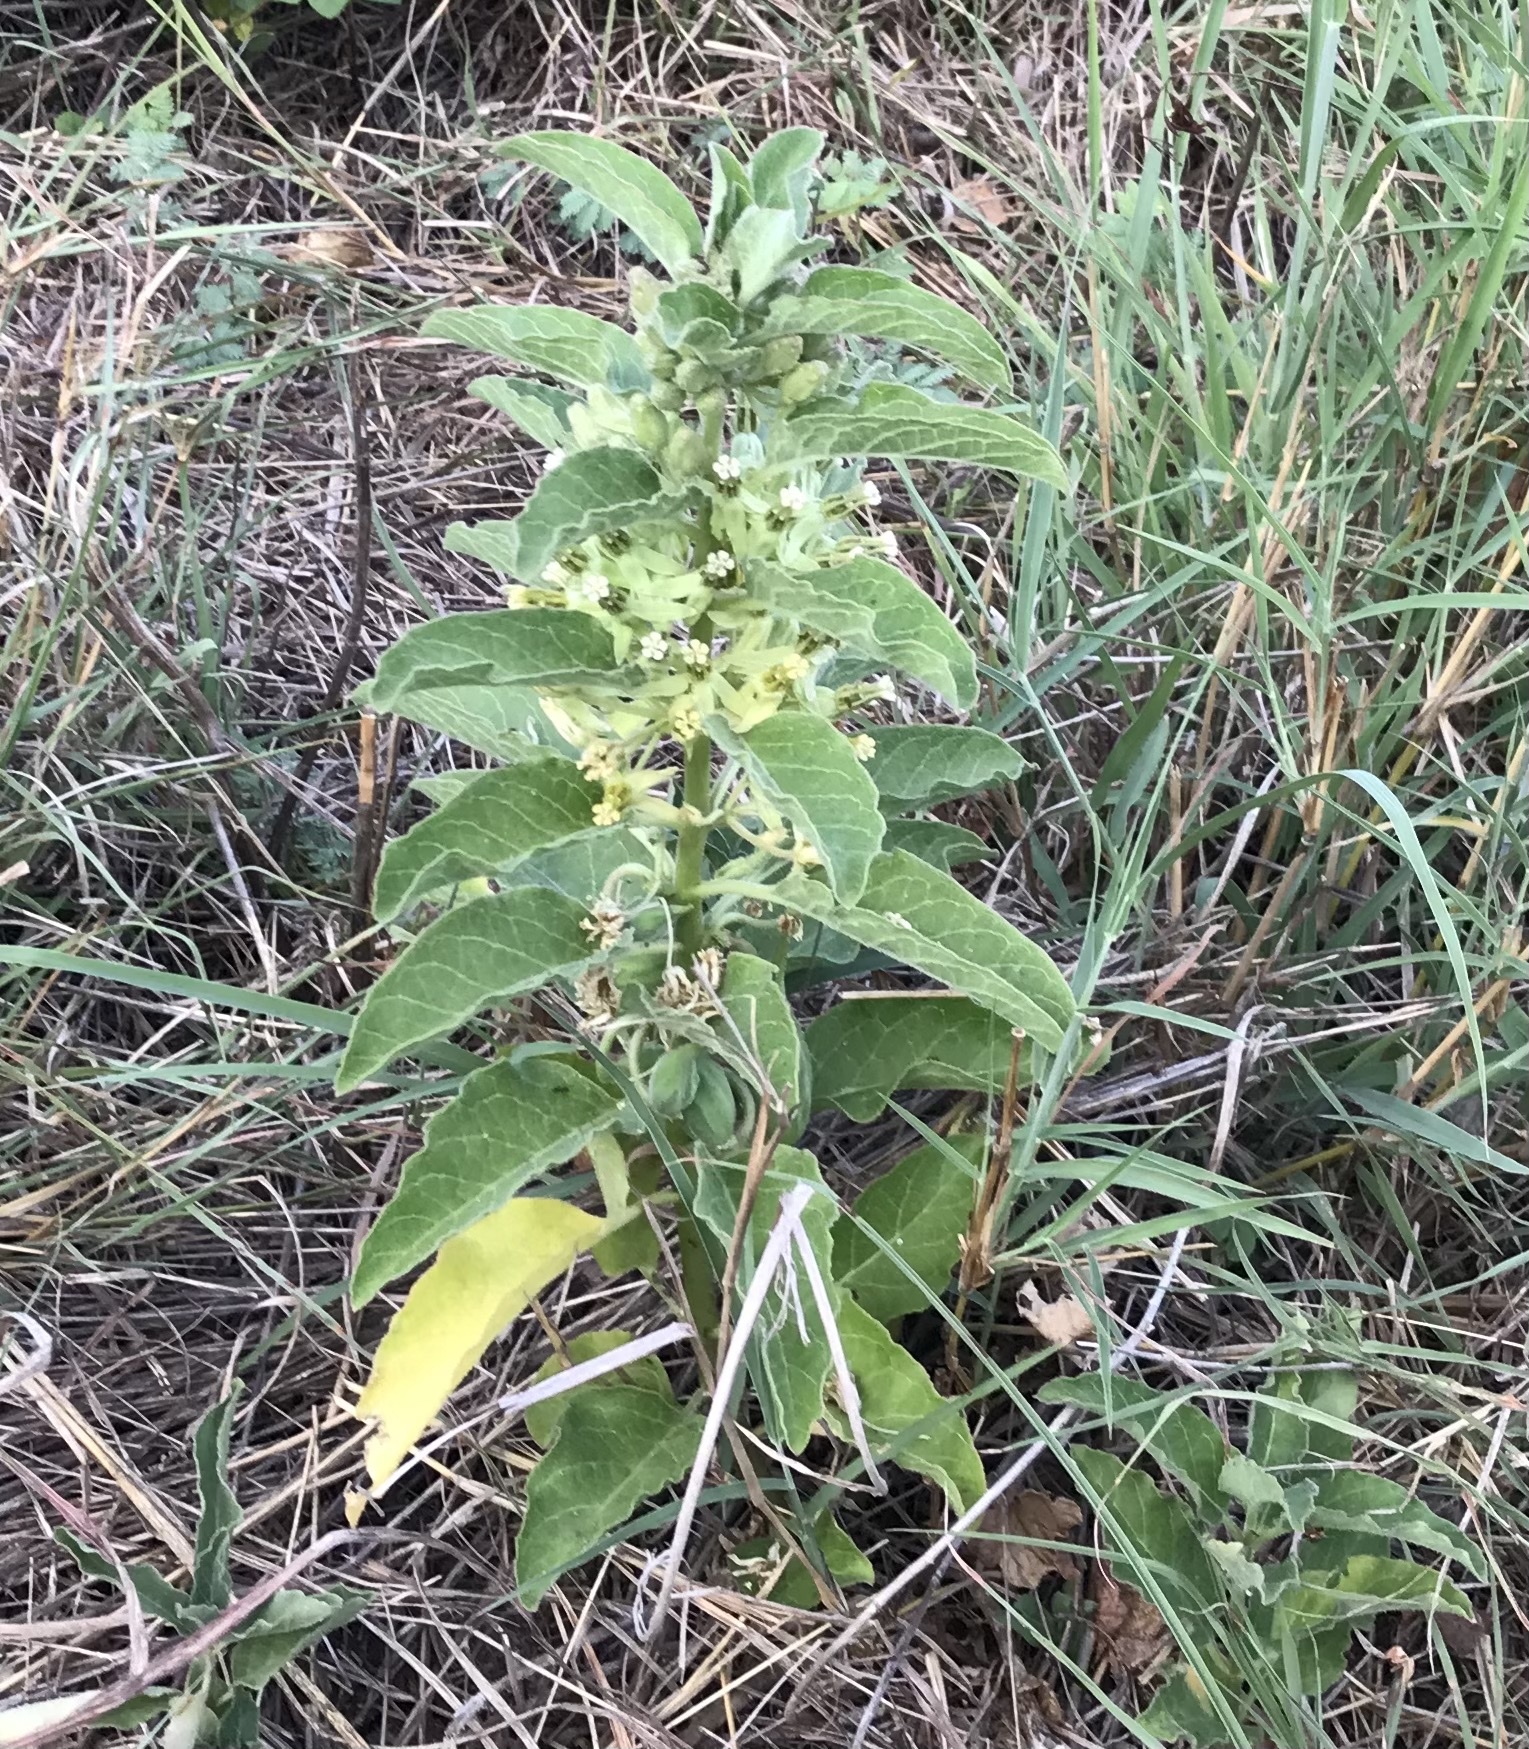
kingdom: Plantae
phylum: Tracheophyta
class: Magnoliopsida
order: Gentianales
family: Apocynaceae
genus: Asclepias
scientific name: Asclepias oenotheroides
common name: Zizotes milkweed
